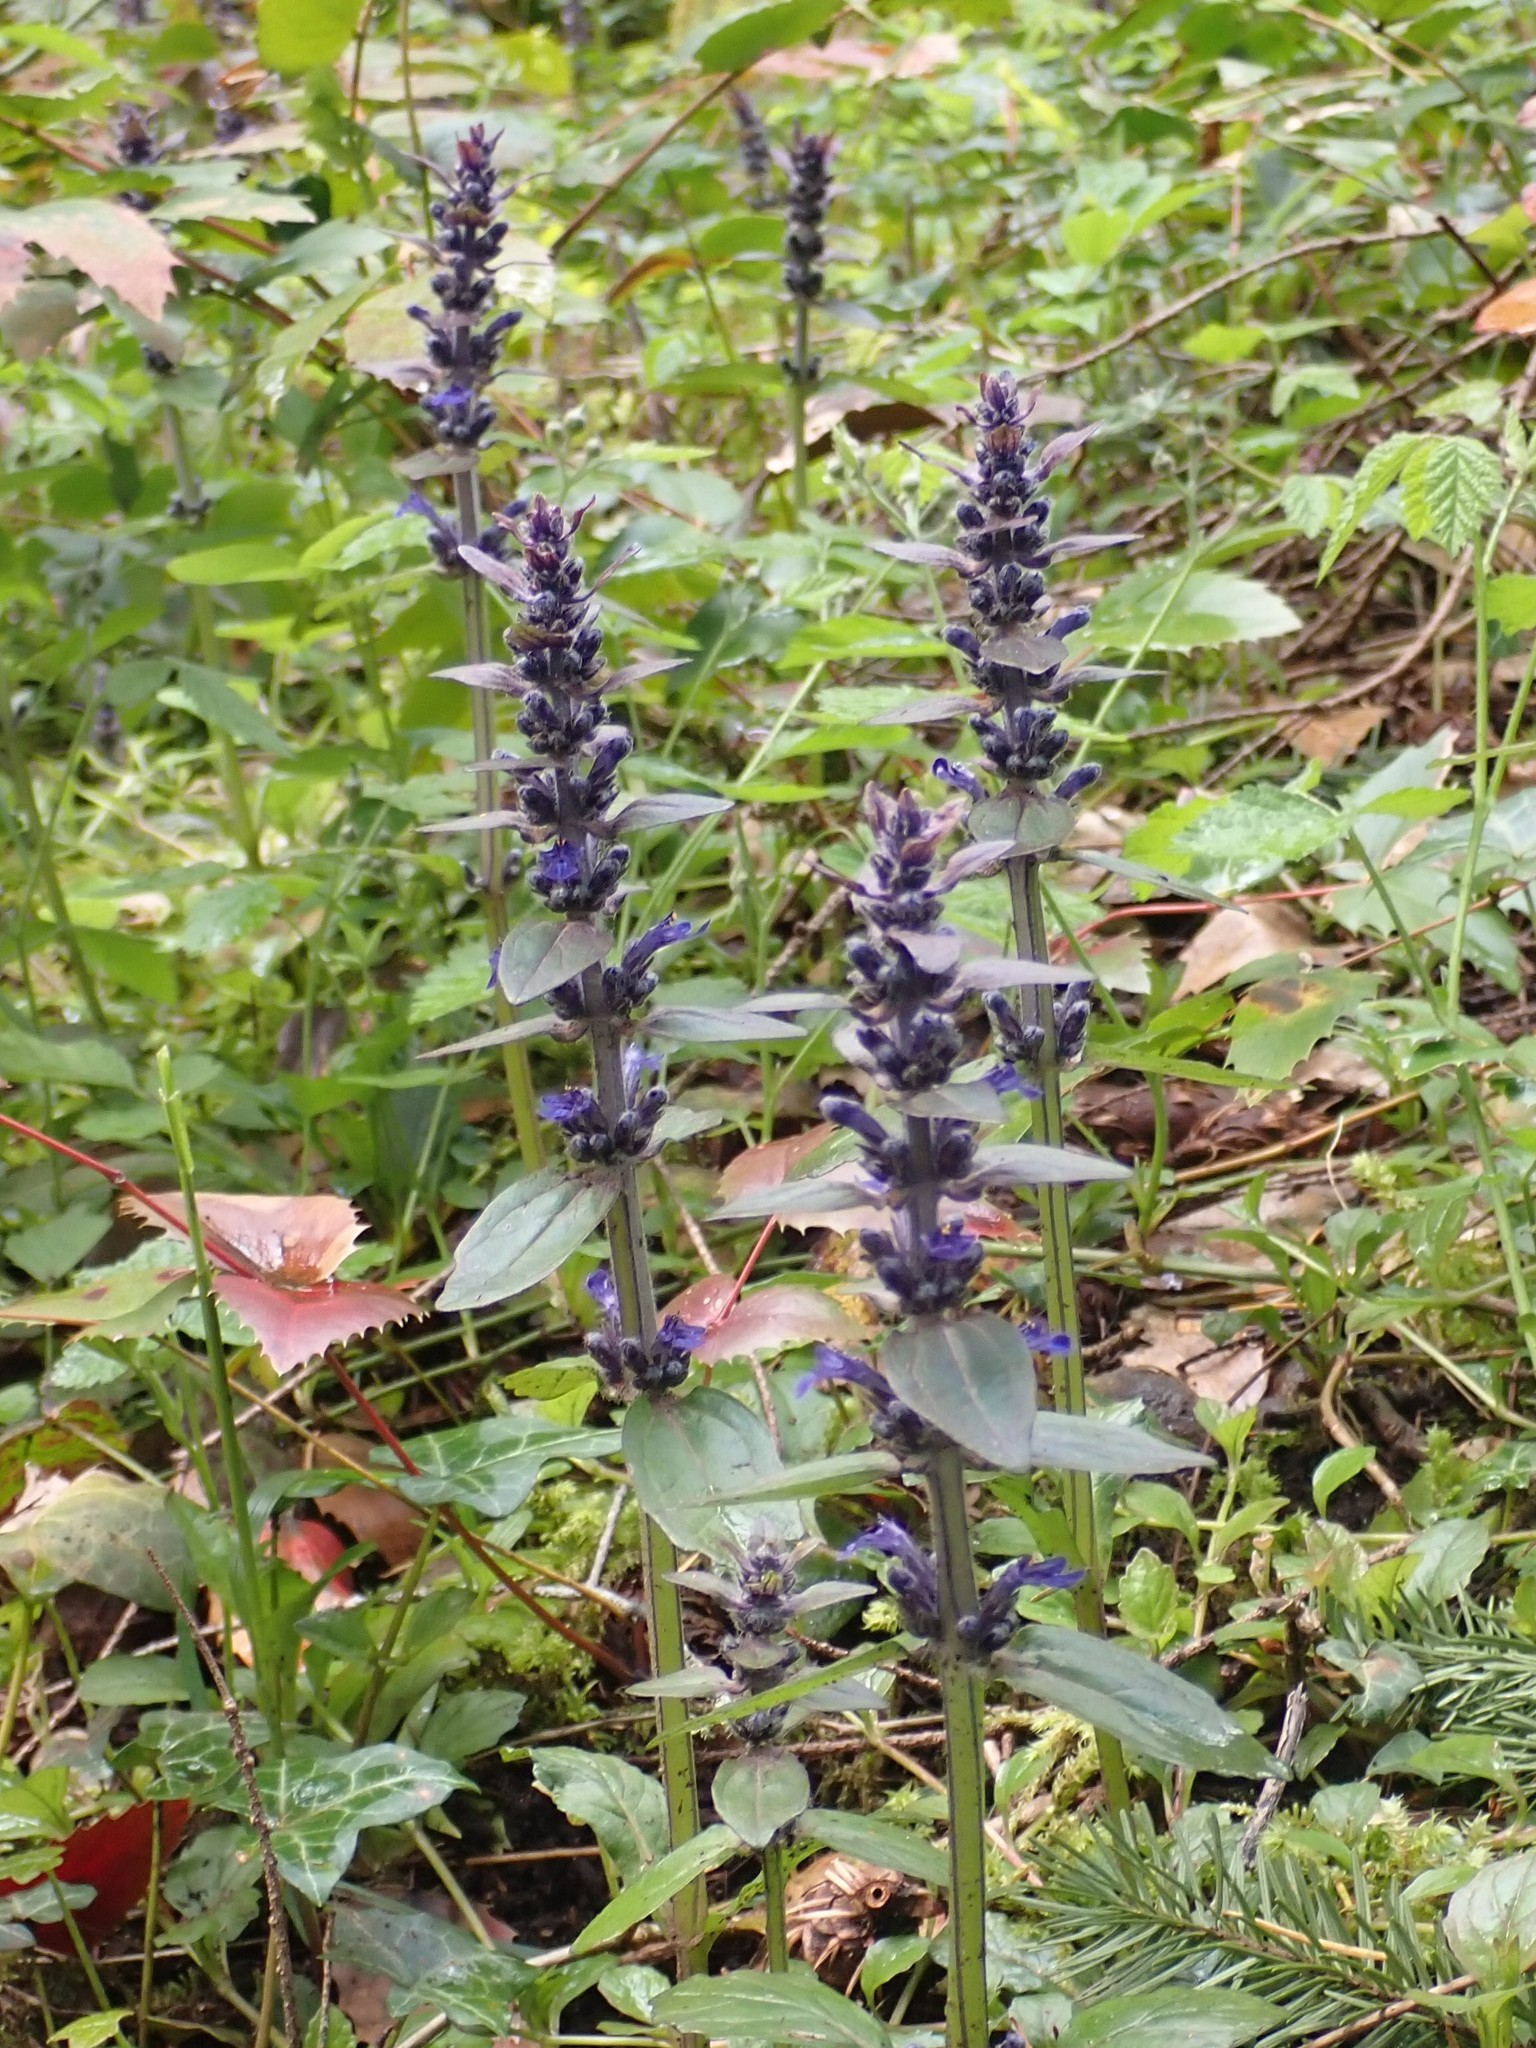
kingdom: Plantae
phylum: Tracheophyta
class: Magnoliopsida
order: Lamiales
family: Lamiaceae
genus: Ajuga
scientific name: Ajuga reptans
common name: Bugle
